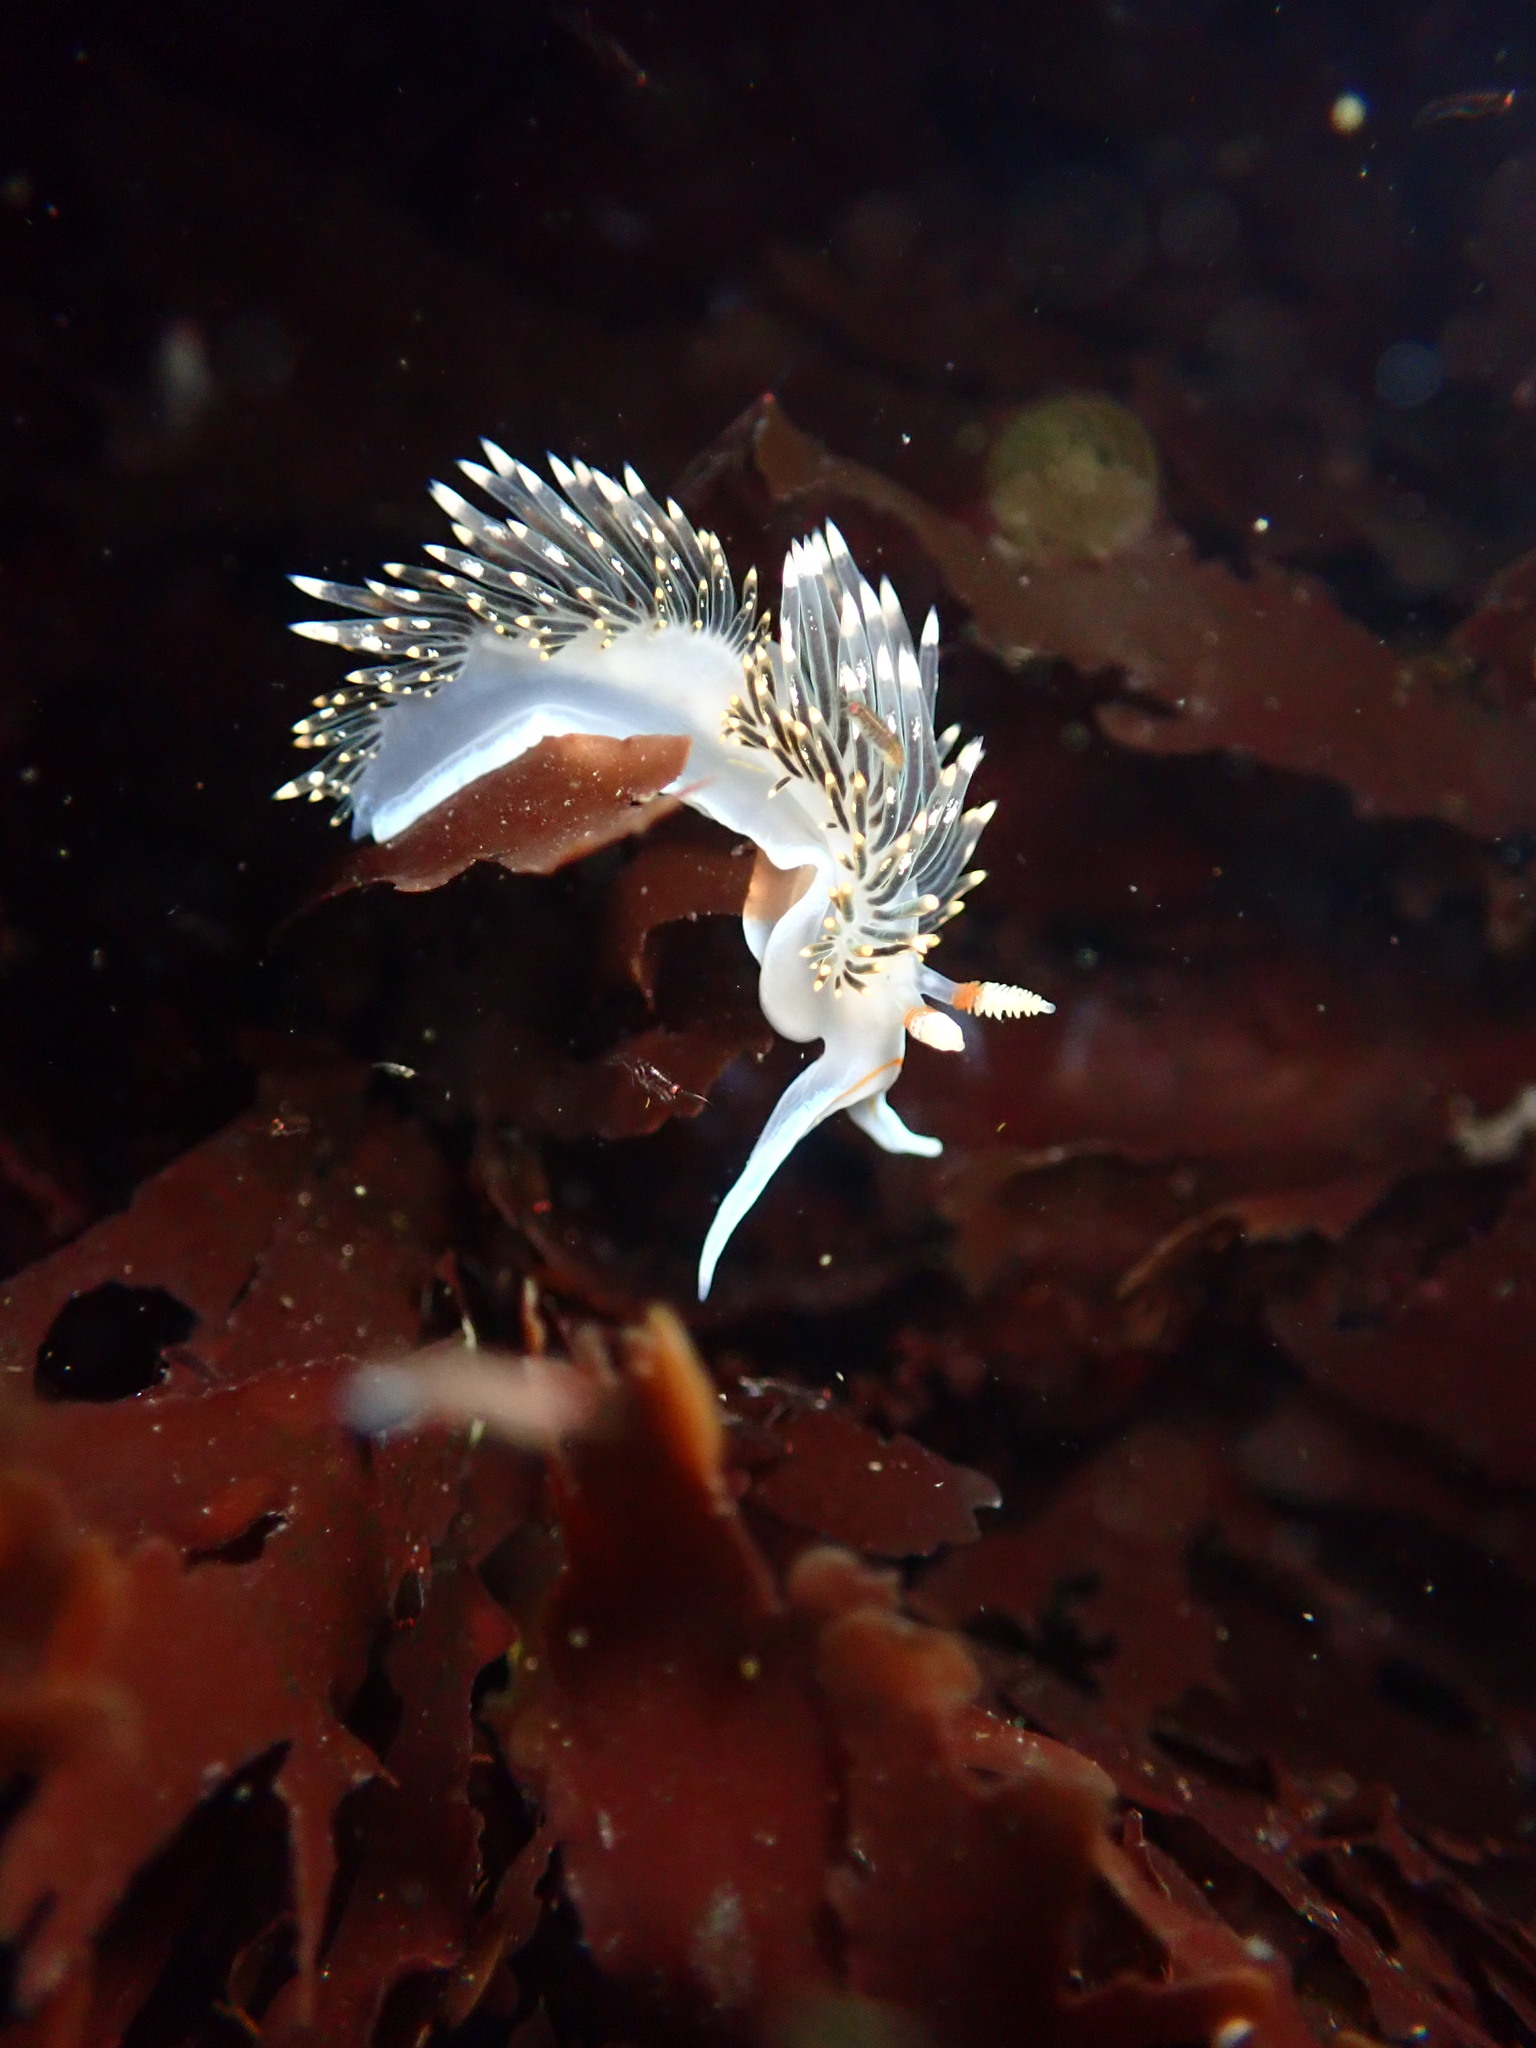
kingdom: Animalia
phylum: Mollusca
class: Gastropoda
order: Nudibranchia
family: Facelinidae
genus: Phidiana
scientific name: Phidiana hiltoni
